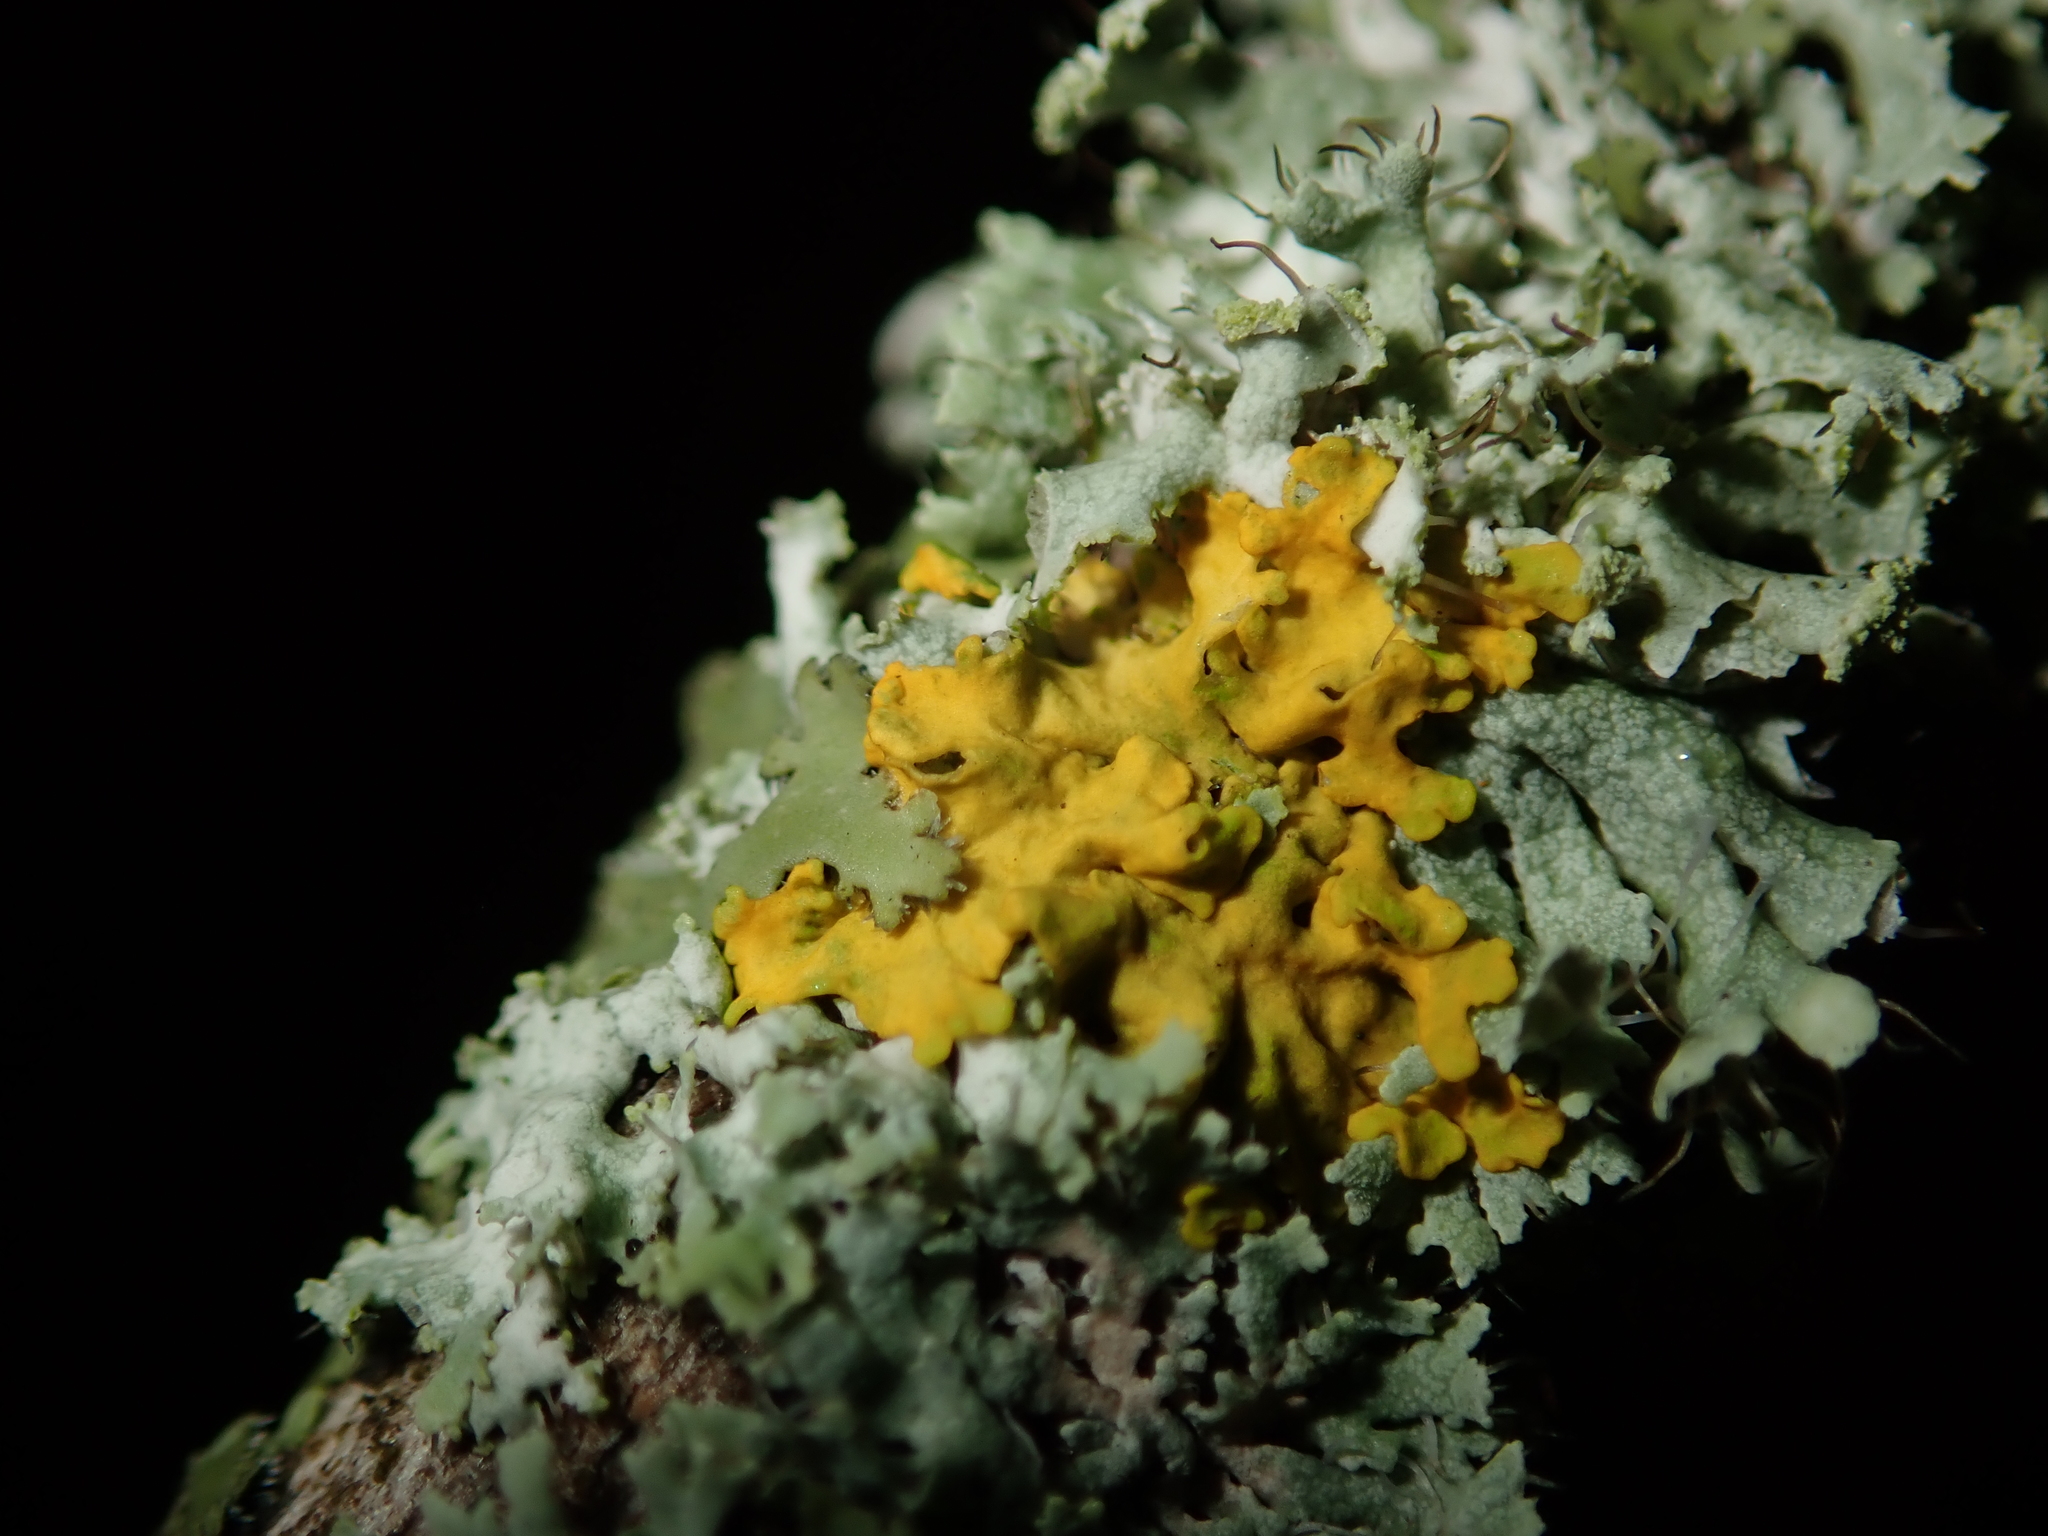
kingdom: Fungi
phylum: Ascomycota
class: Lecanoromycetes
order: Teloschistales
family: Teloschistaceae
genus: Xanthoria
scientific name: Xanthoria parietina
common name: Common orange lichen
